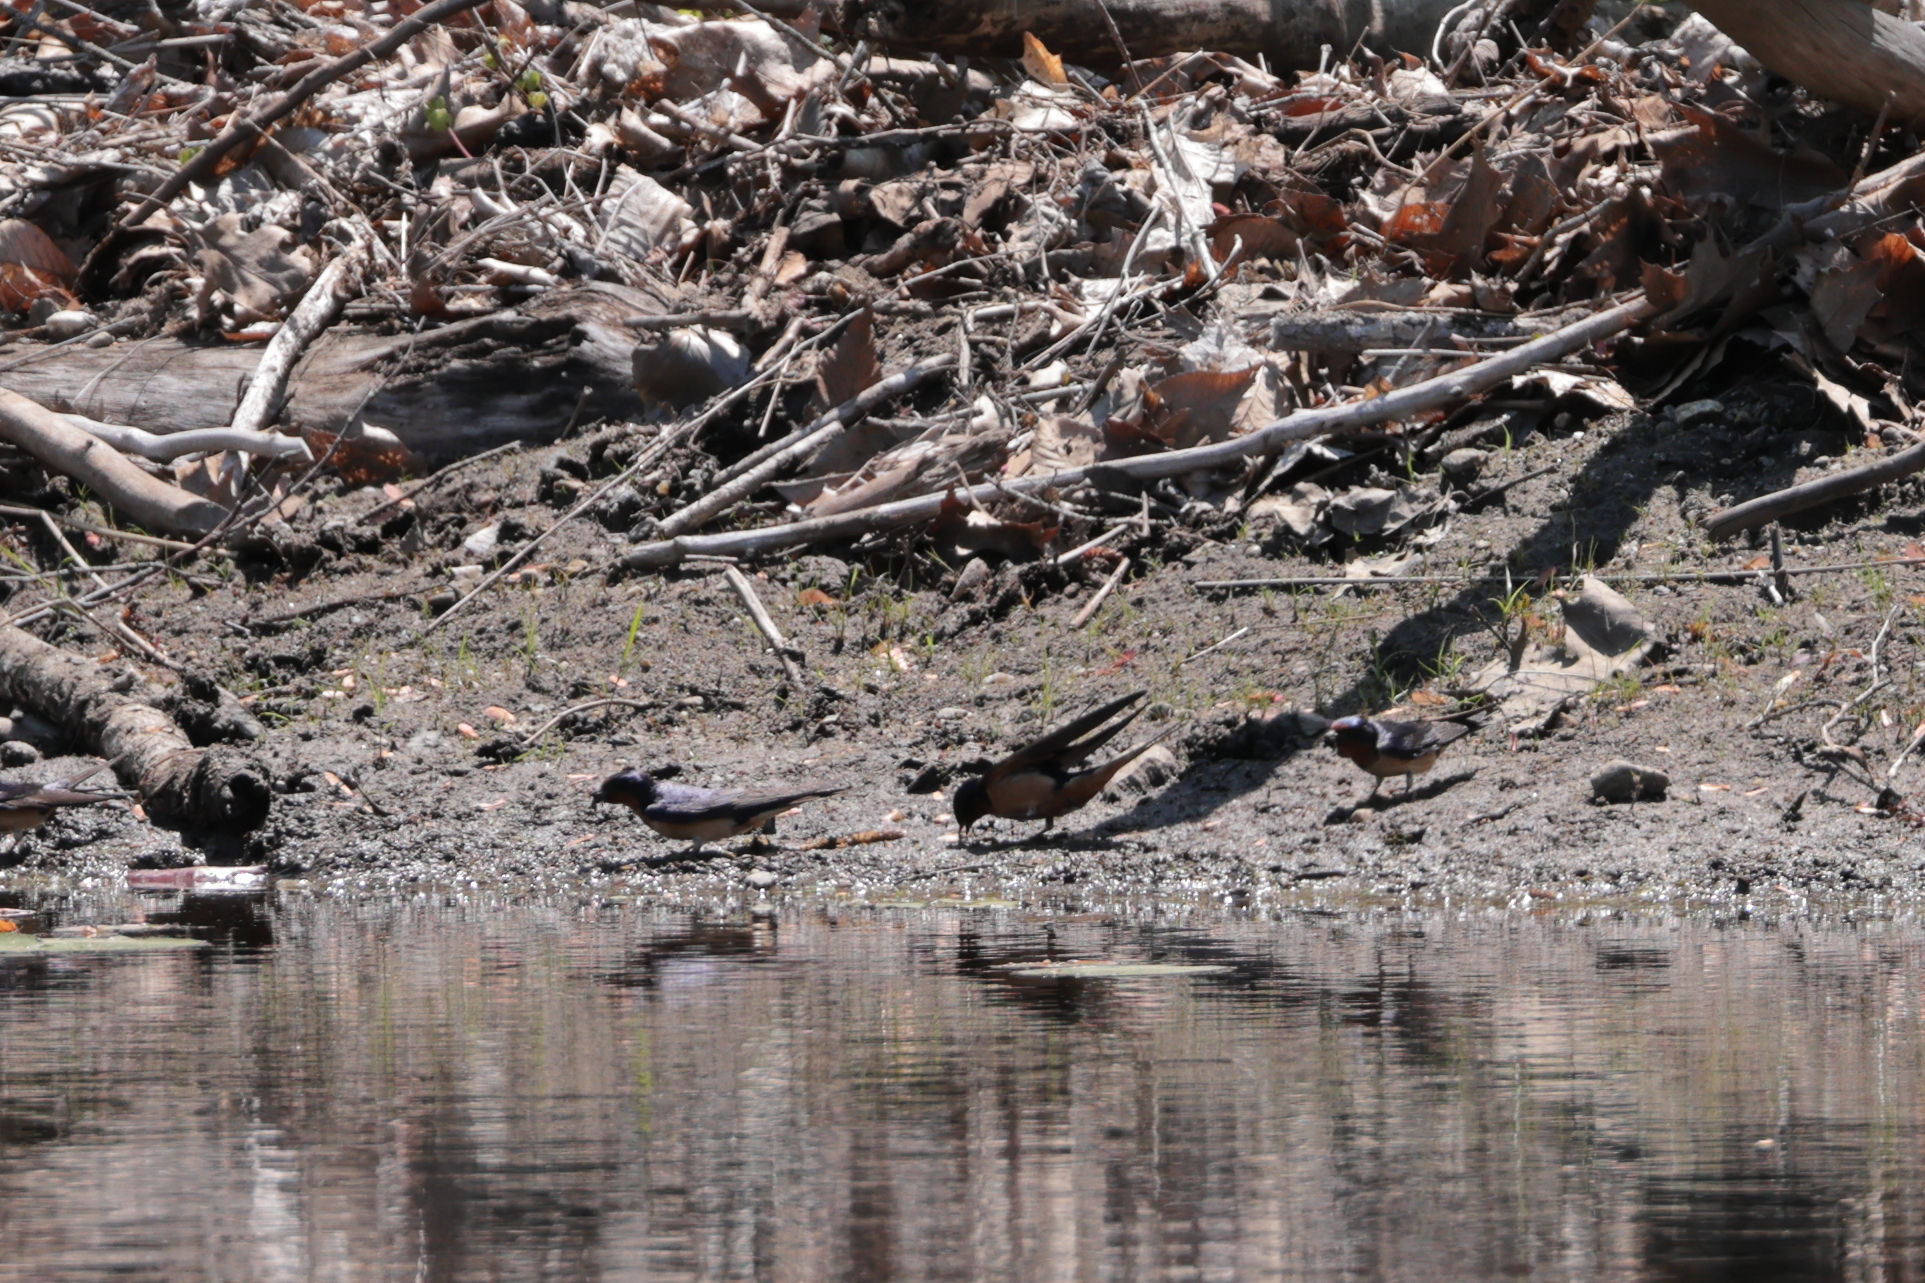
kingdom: Animalia
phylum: Chordata
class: Aves
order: Passeriformes
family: Hirundinidae
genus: Hirundo
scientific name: Hirundo rustica
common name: Barn swallow
